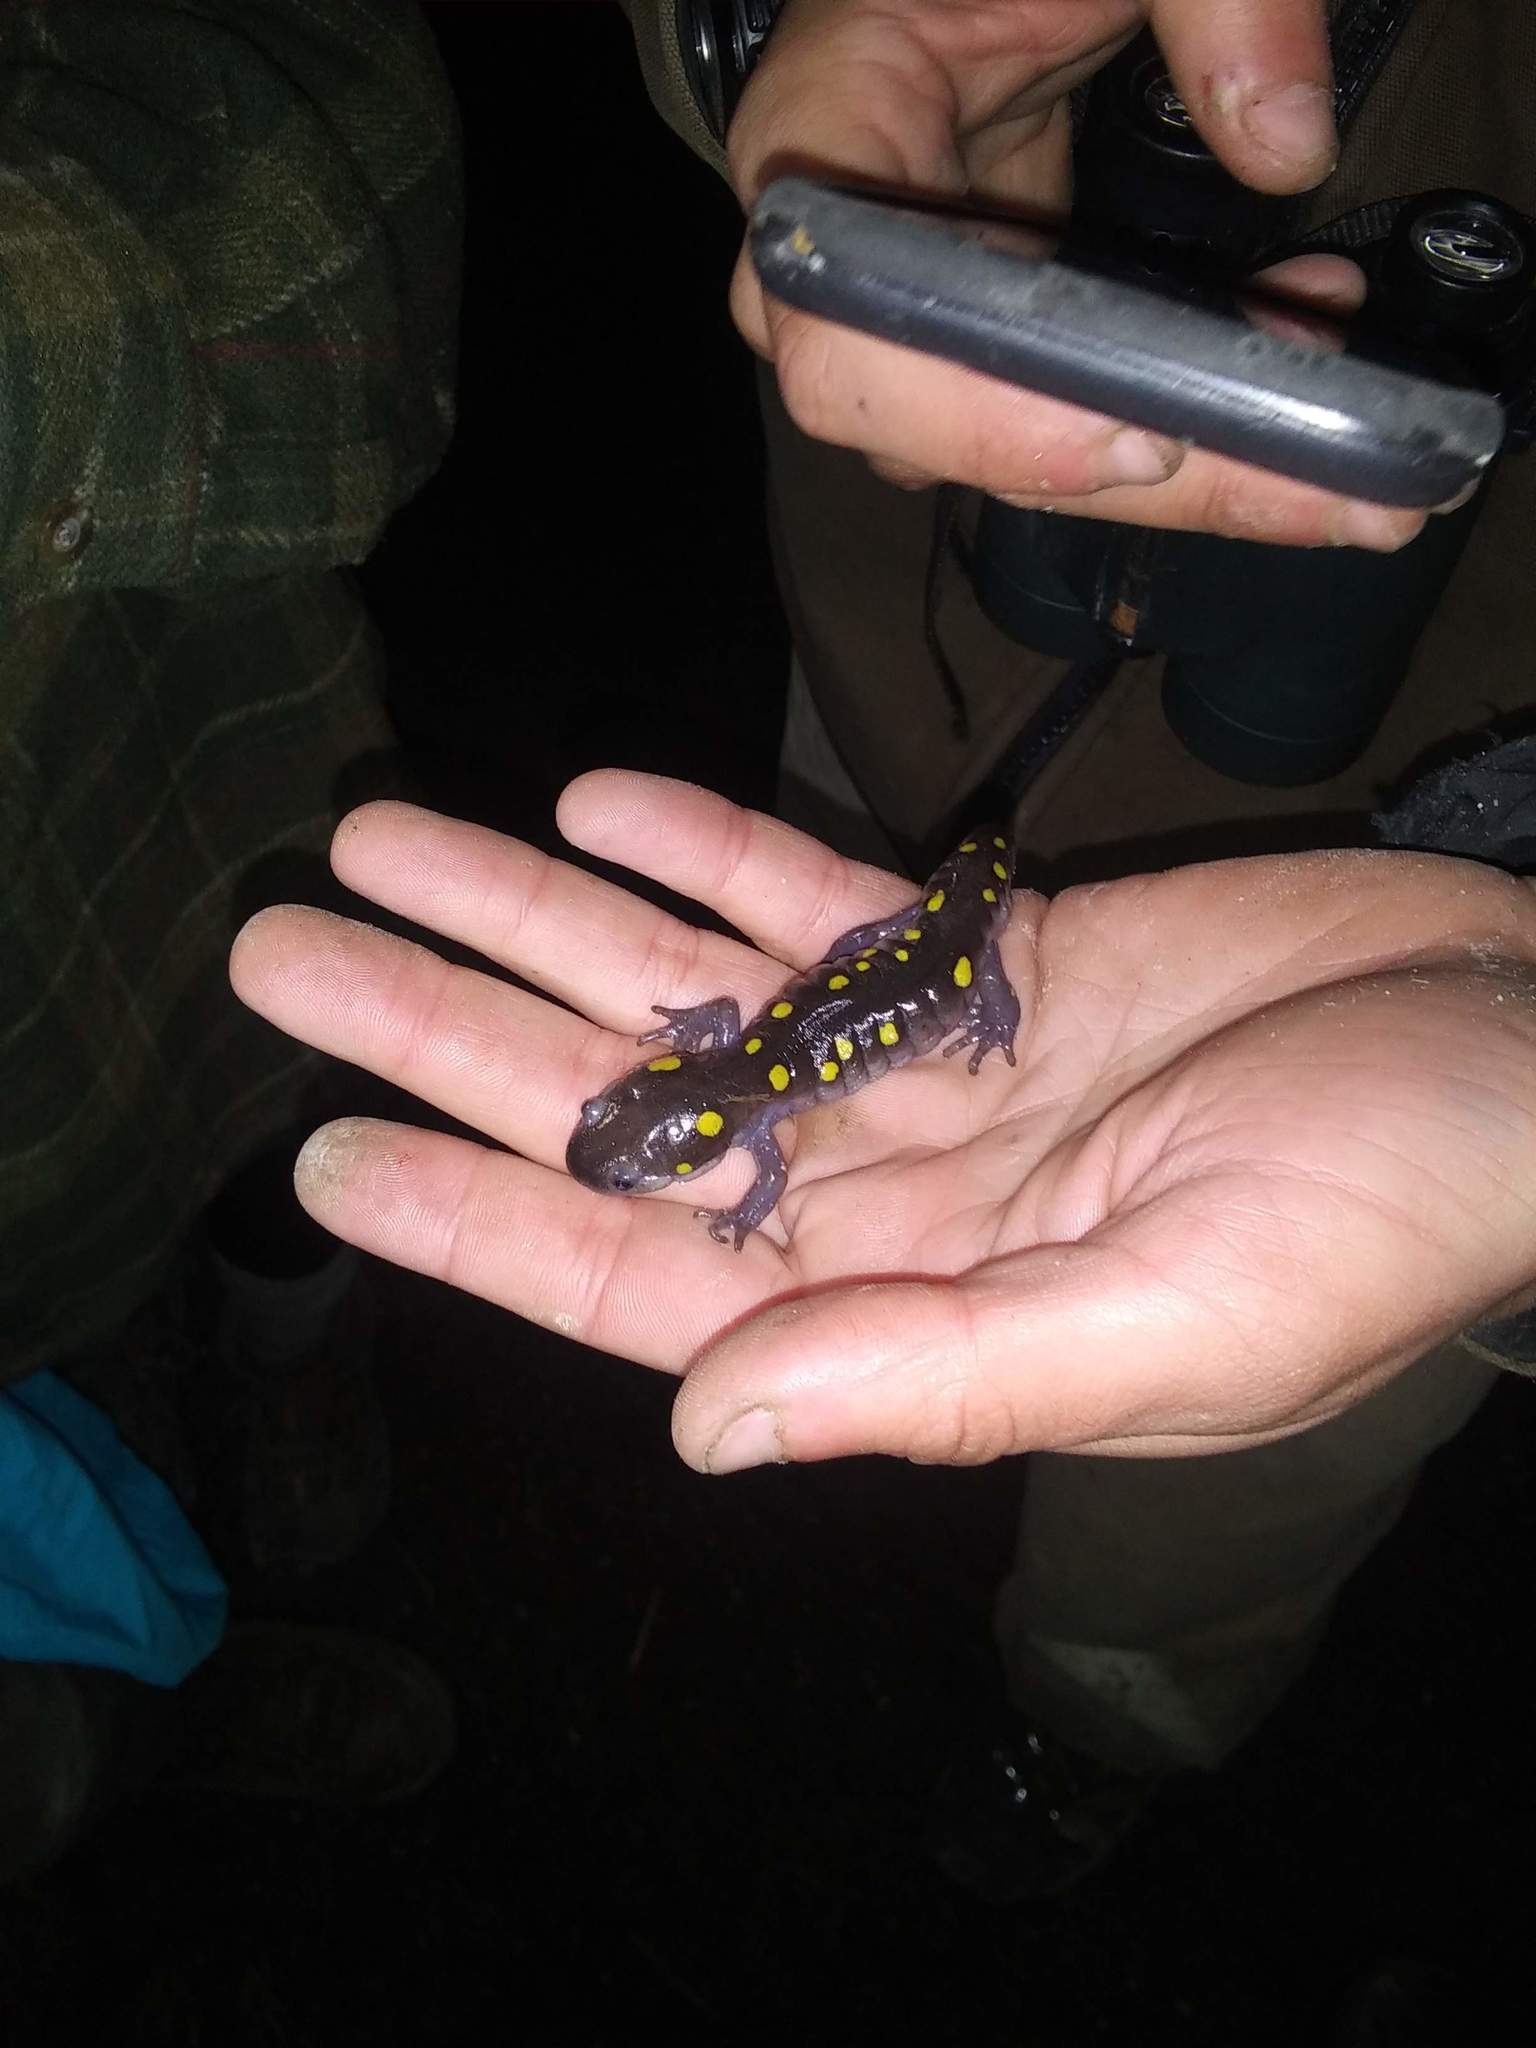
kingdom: Animalia
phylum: Chordata
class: Amphibia
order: Caudata
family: Ambystomatidae
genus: Ambystoma
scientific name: Ambystoma maculatum
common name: Spotted salamander
